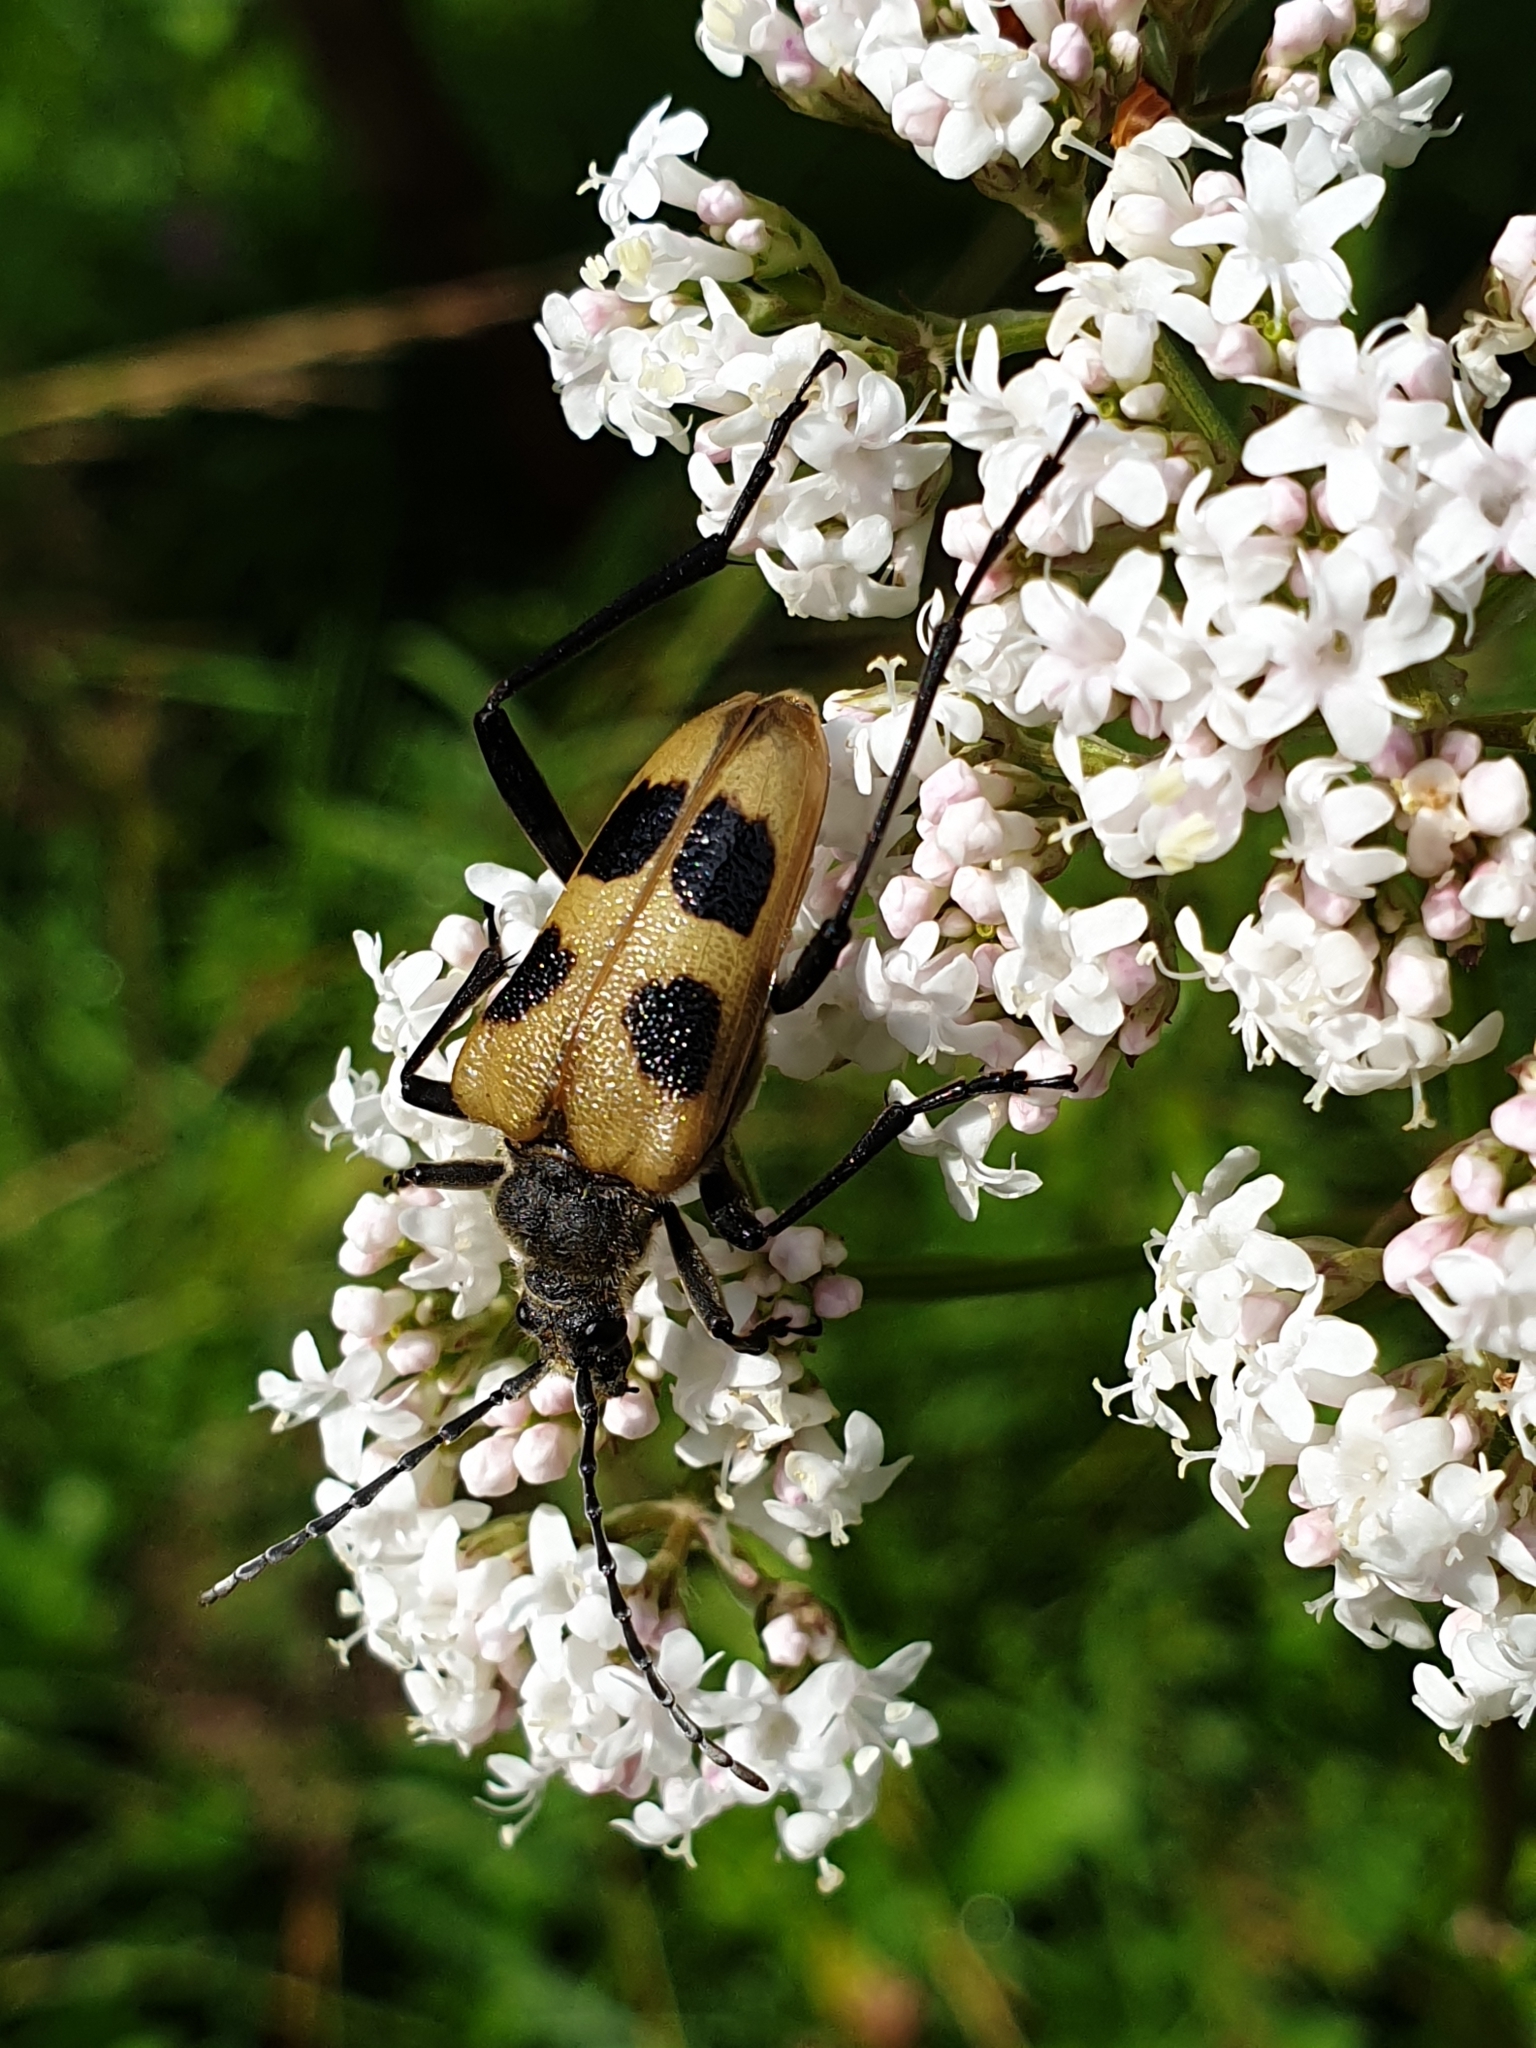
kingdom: Animalia
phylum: Arthropoda
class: Insecta
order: Coleoptera
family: Cerambycidae
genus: Pachyta
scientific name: Pachyta quadrimaculata
